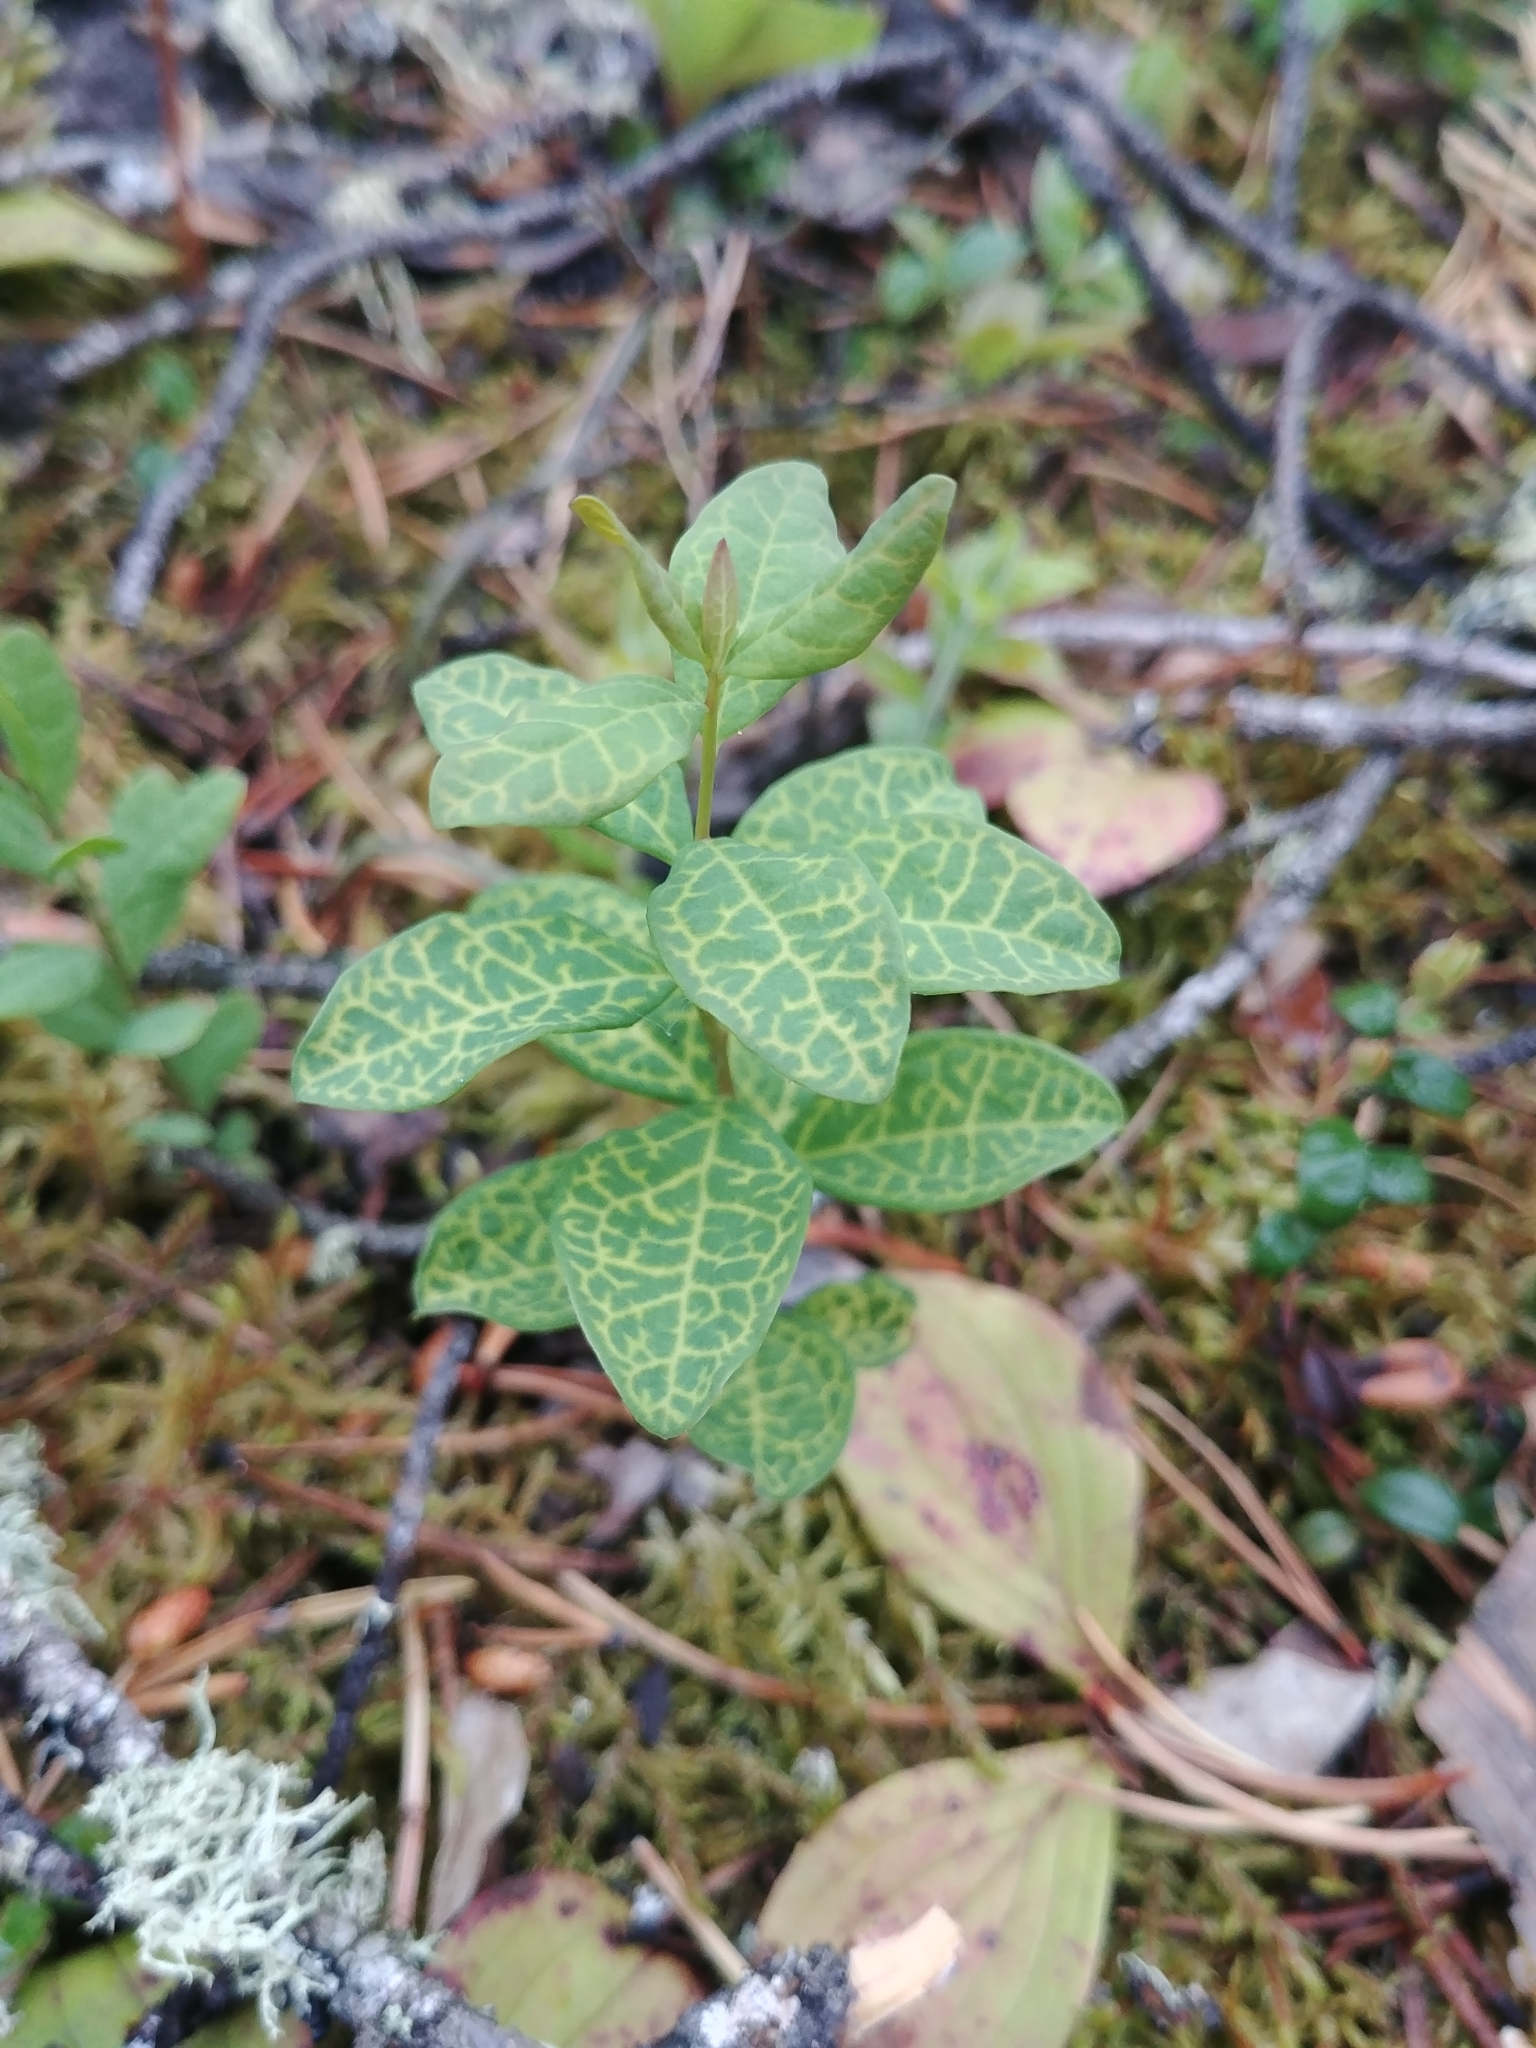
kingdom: Plantae
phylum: Tracheophyta
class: Magnoliopsida
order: Santalales
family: Comandraceae
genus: Geocaulon
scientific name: Geocaulon lividum
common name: Earthberry
